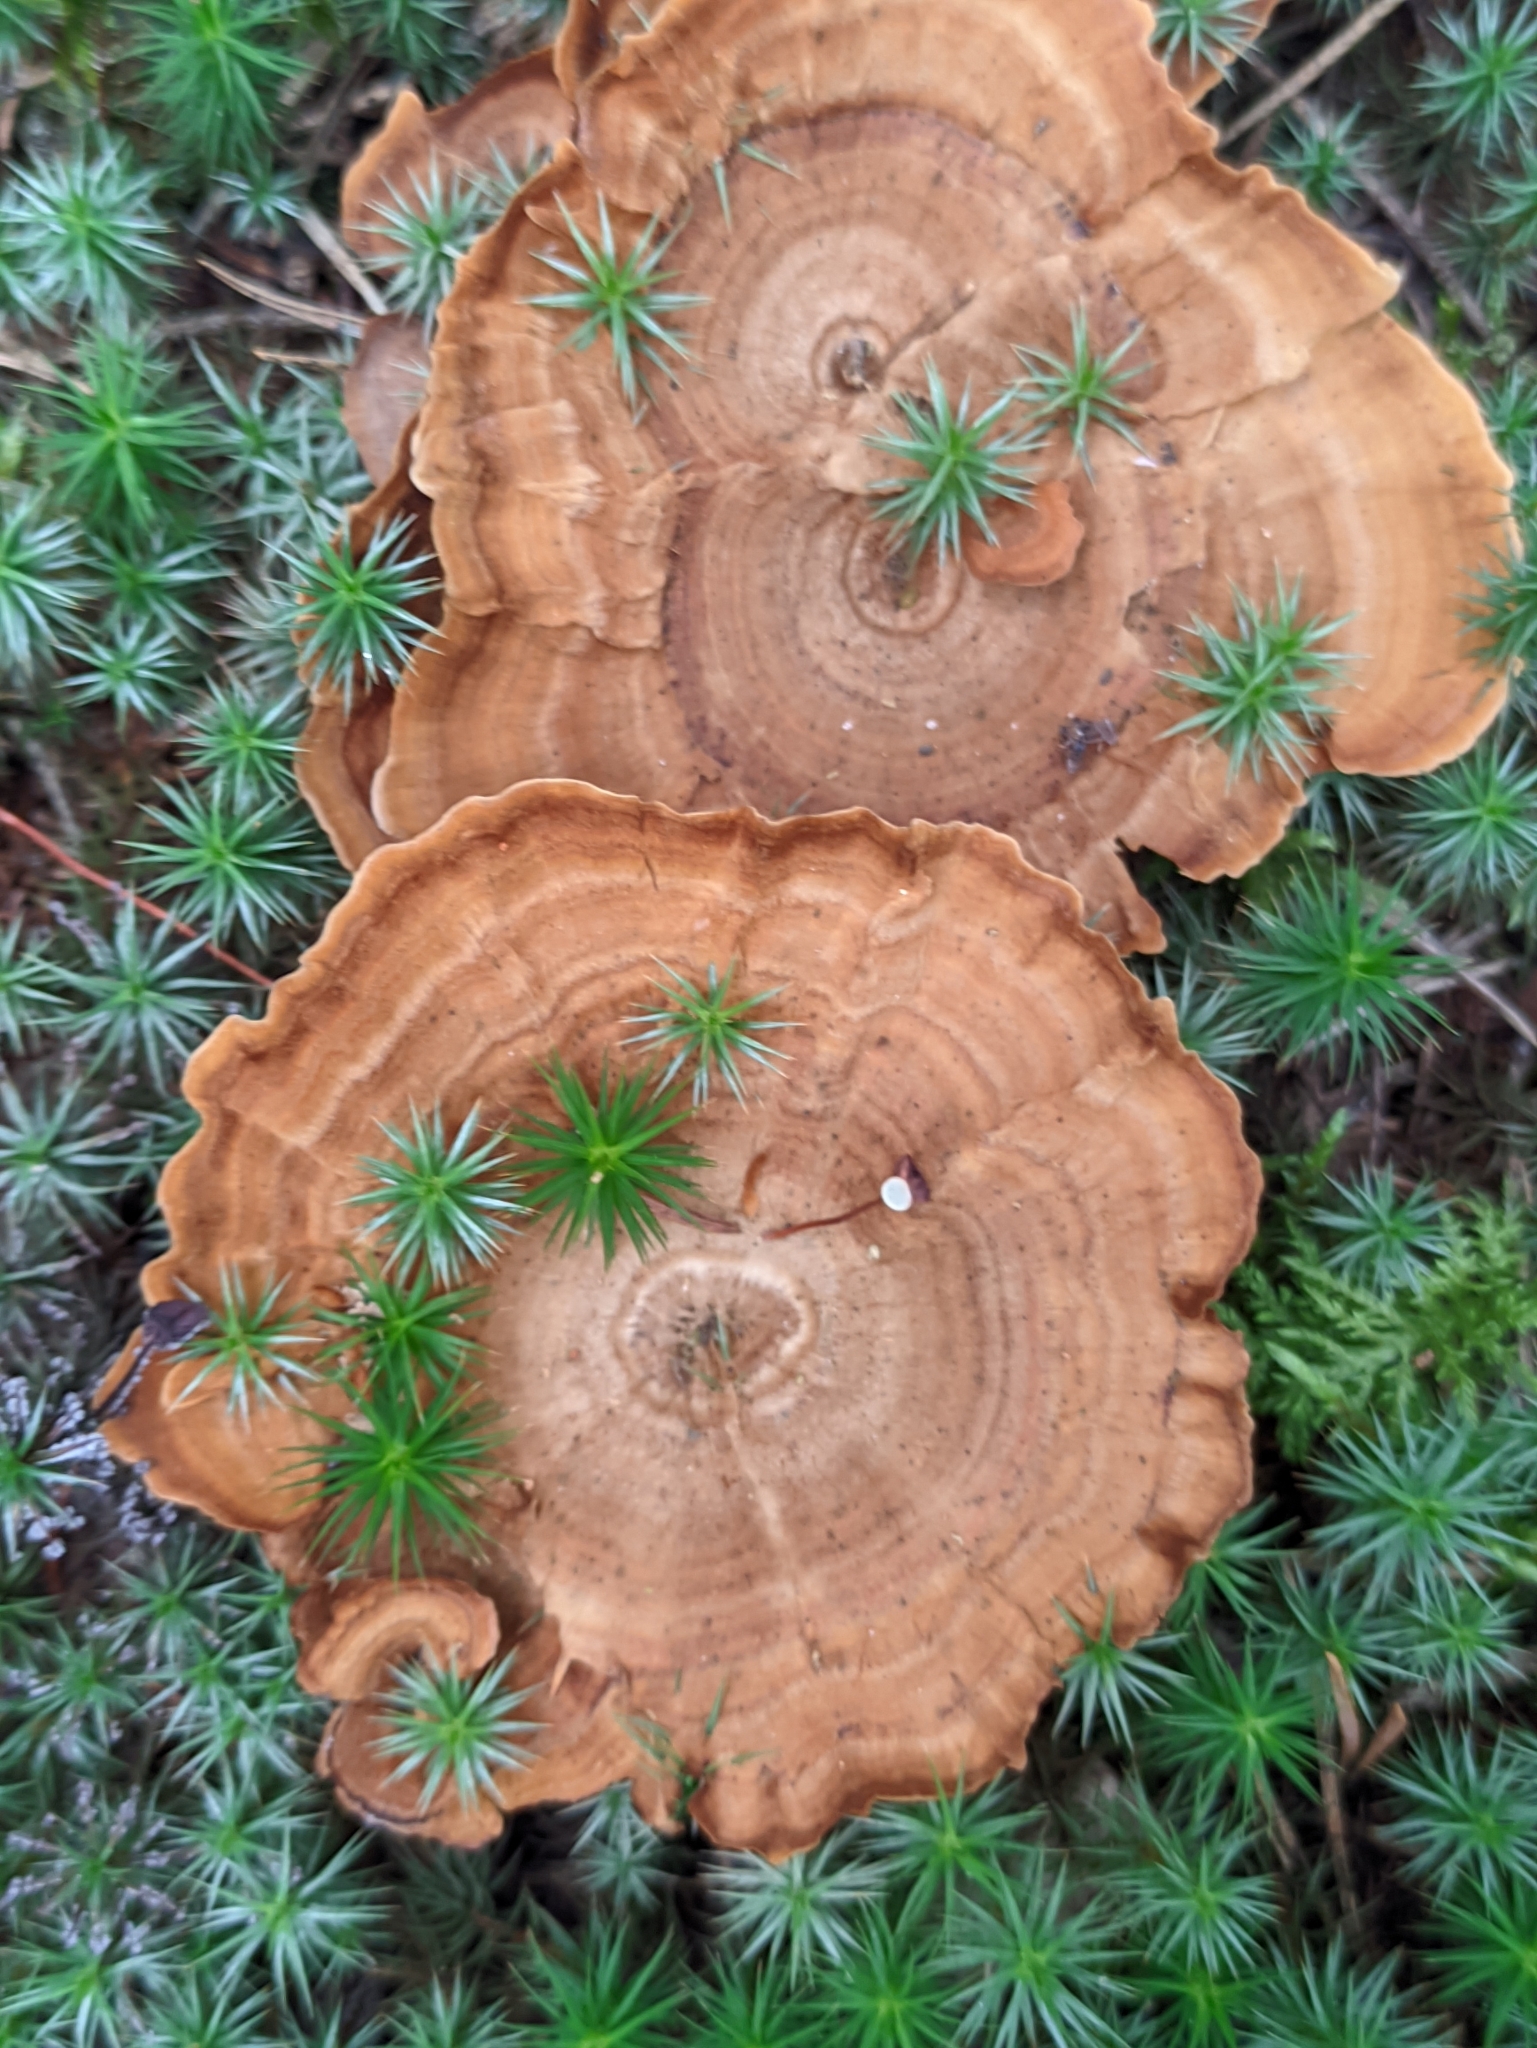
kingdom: Fungi
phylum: Basidiomycota
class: Agaricomycetes
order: Hymenochaetales
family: Hymenochaetaceae
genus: Coltricia
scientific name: Coltricia perennis
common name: Tiger's eye
